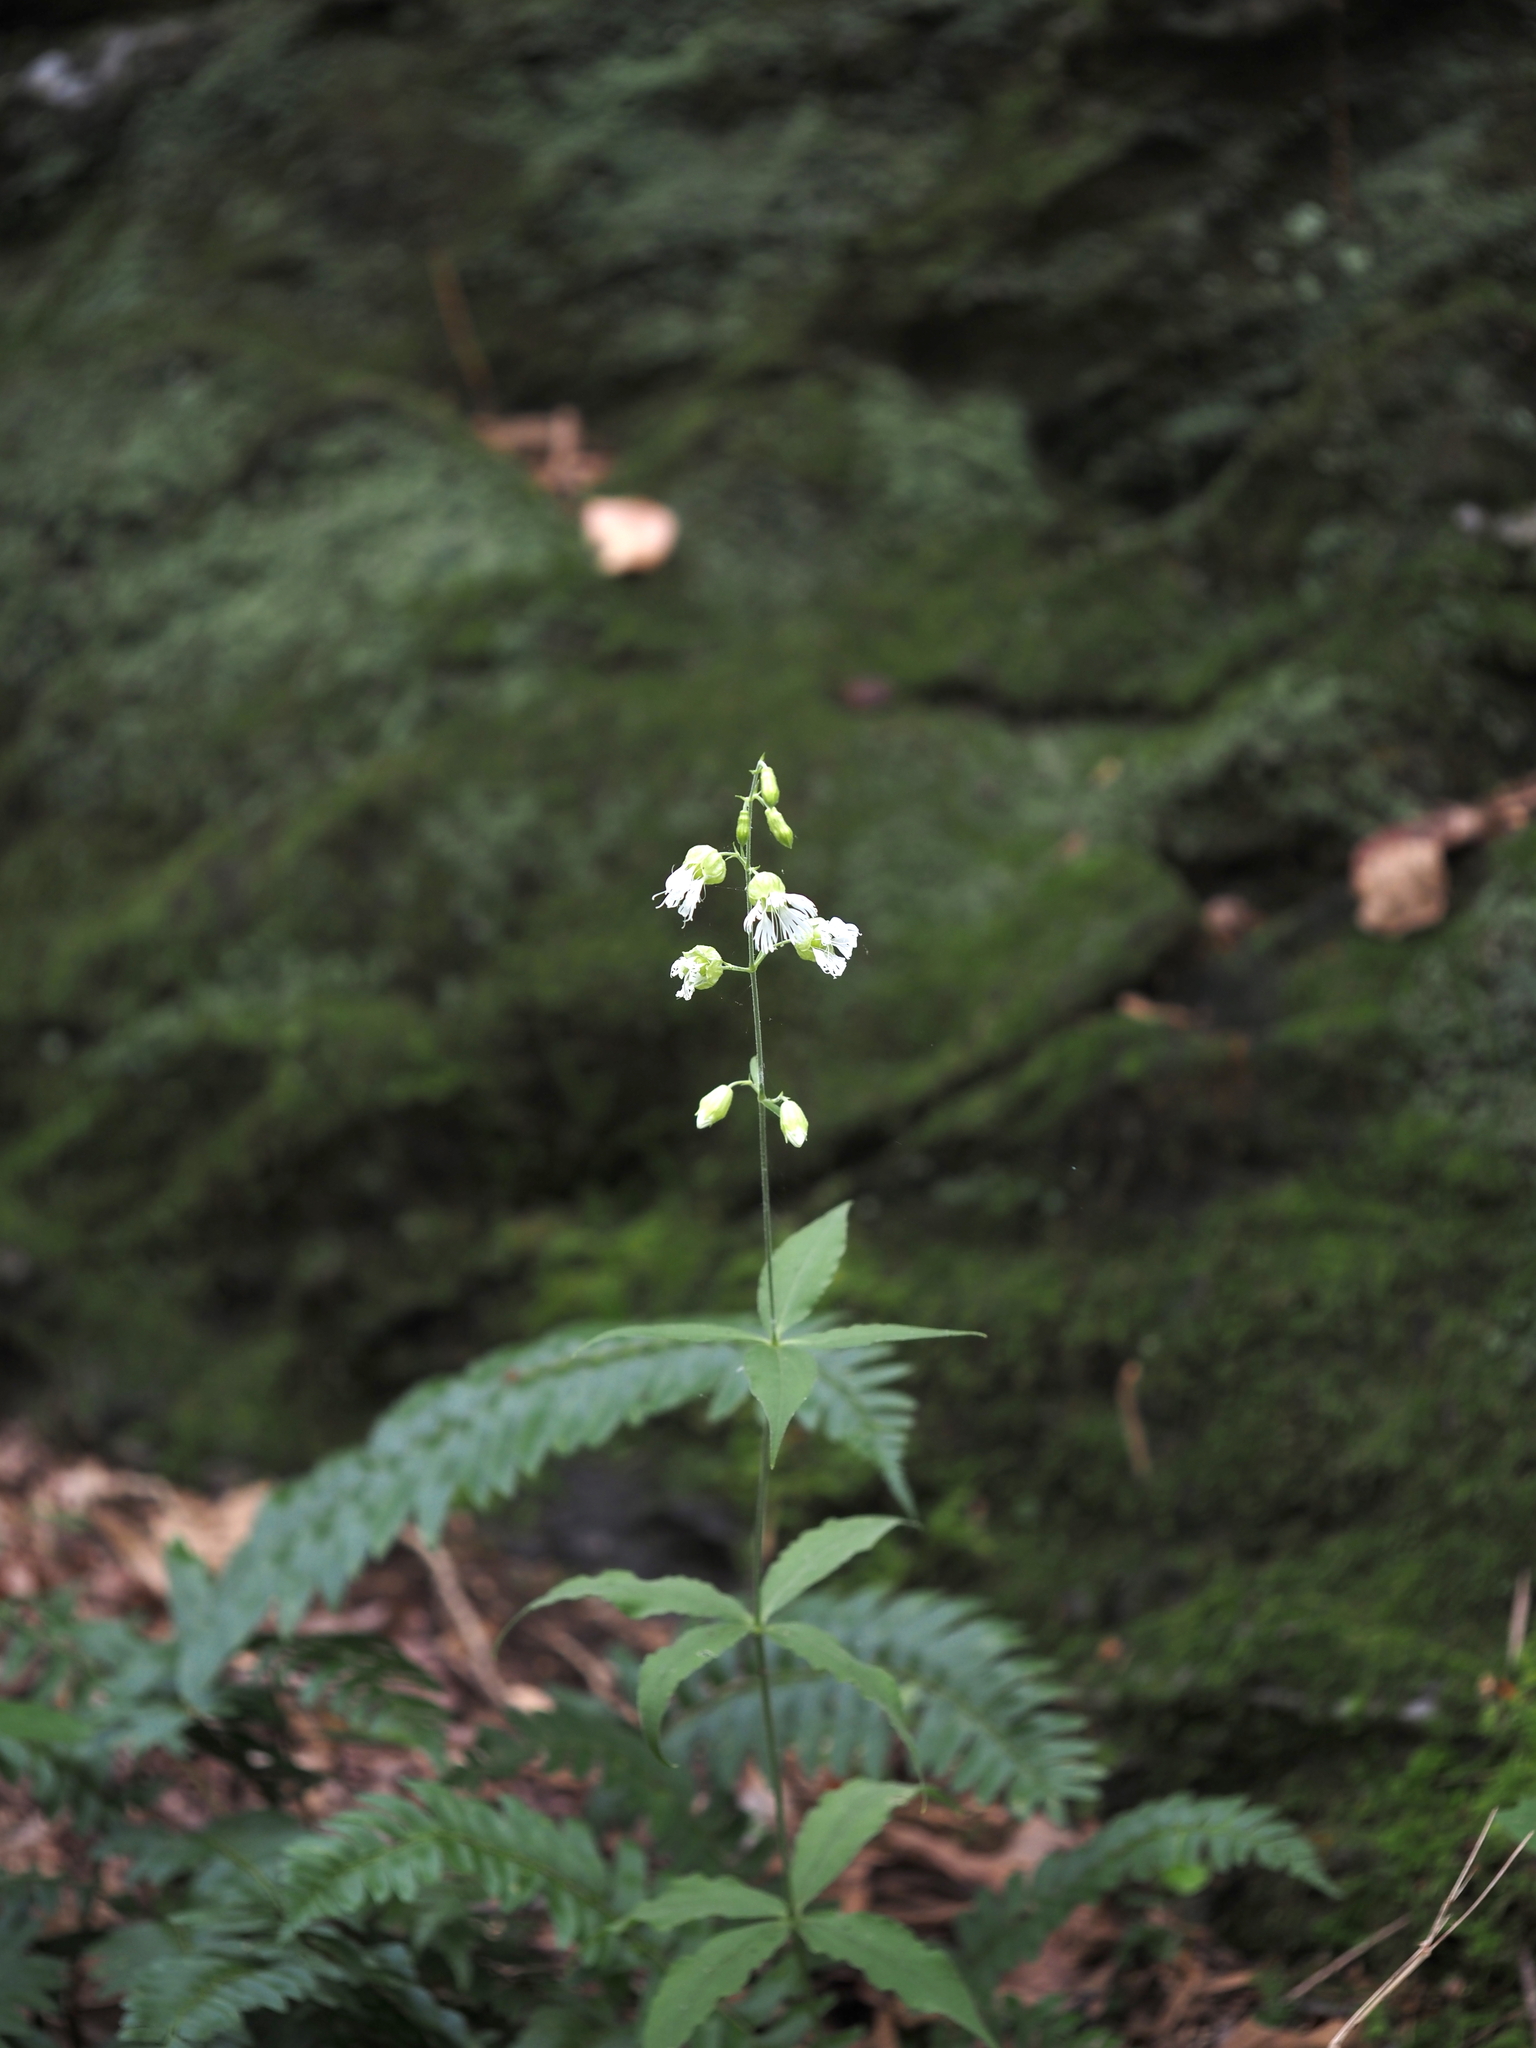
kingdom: Plantae
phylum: Tracheophyta
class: Magnoliopsida
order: Caryophyllales
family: Caryophyllaceae
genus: Silene
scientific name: Silene stellata
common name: Starry campion
